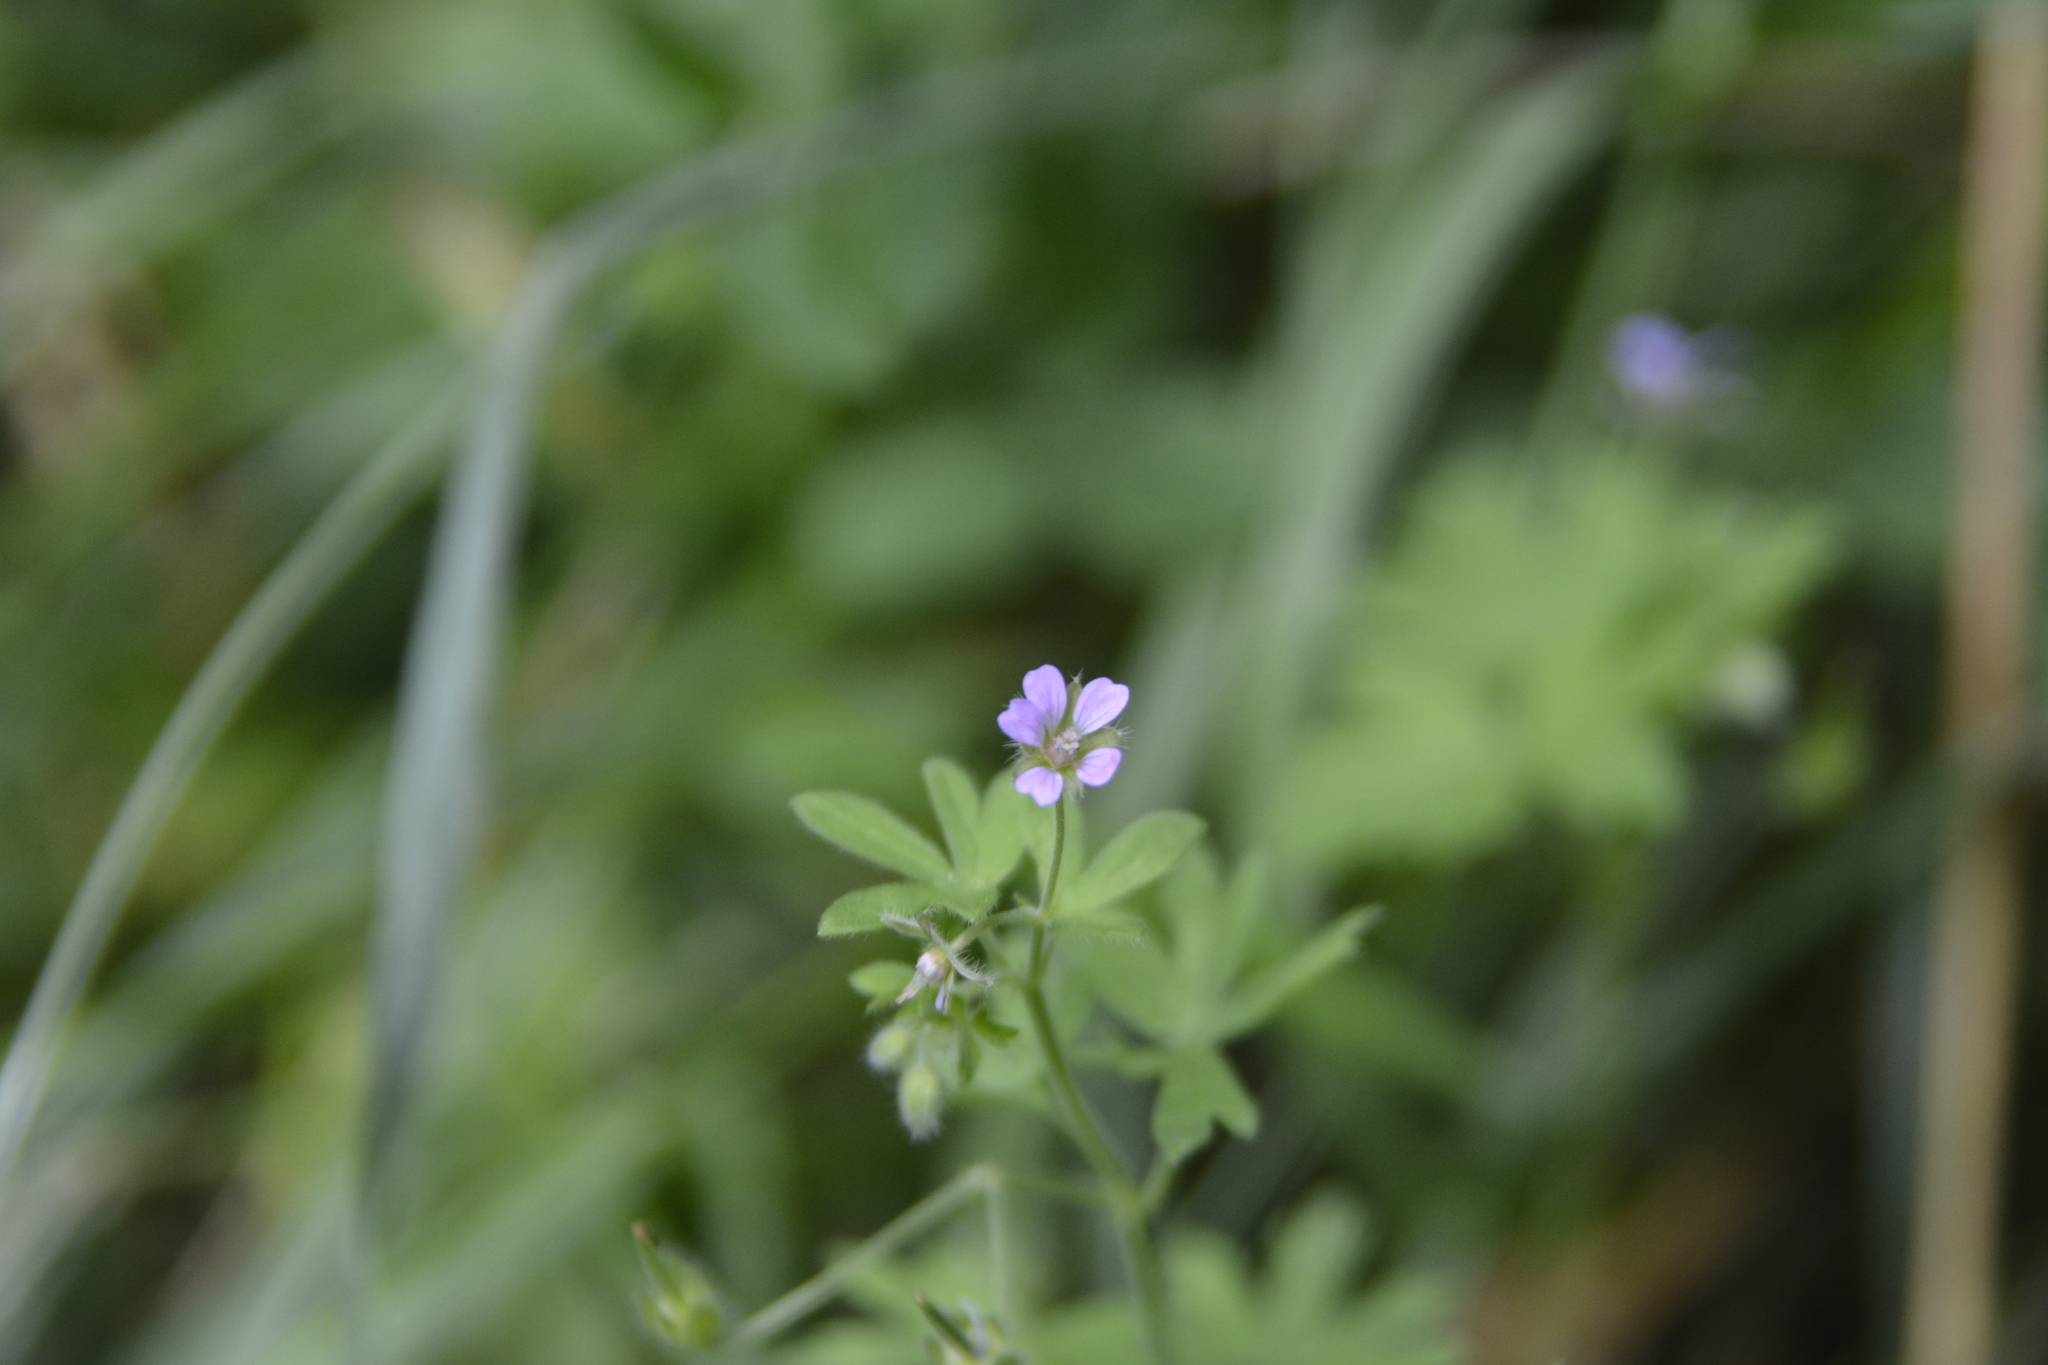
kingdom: Plantae
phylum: Tracheophyta
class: Magnoliopsida
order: Geraniales
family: Geraniaceae
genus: Geranium
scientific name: Geranium pusillum
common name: Small geranium
